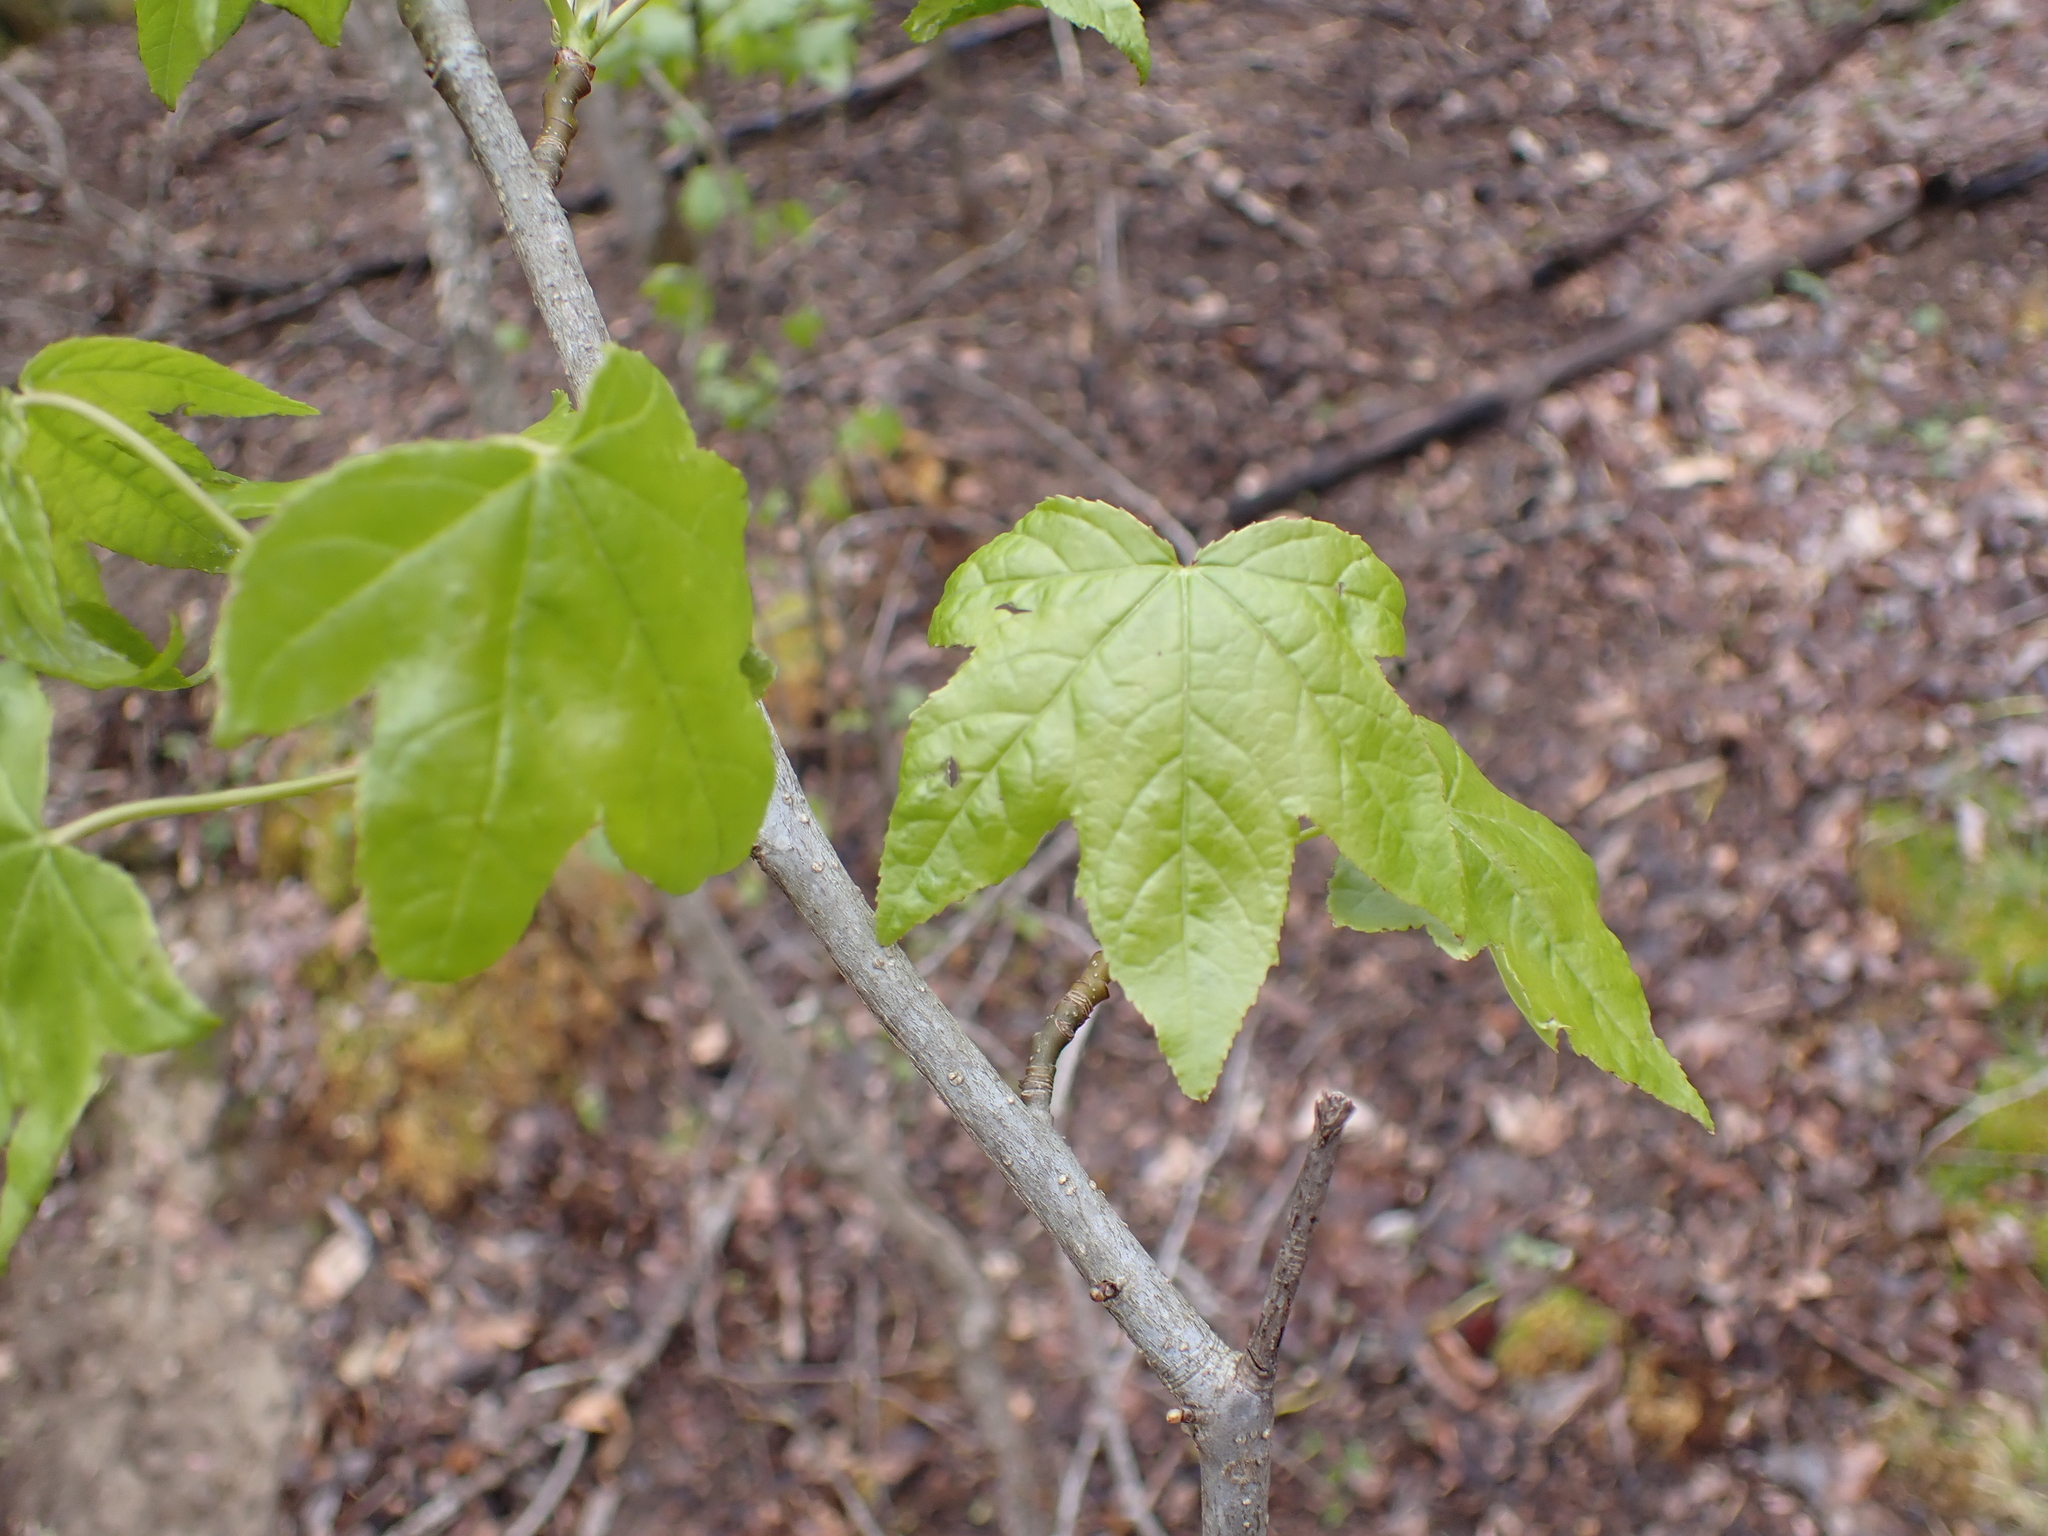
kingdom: Plantae
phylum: Tracheophyta
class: Magnoliopsida
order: Saxifragales
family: Altingiaceae
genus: Liquidambar
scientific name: Liquidambar styraciflua
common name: Sweet gum
